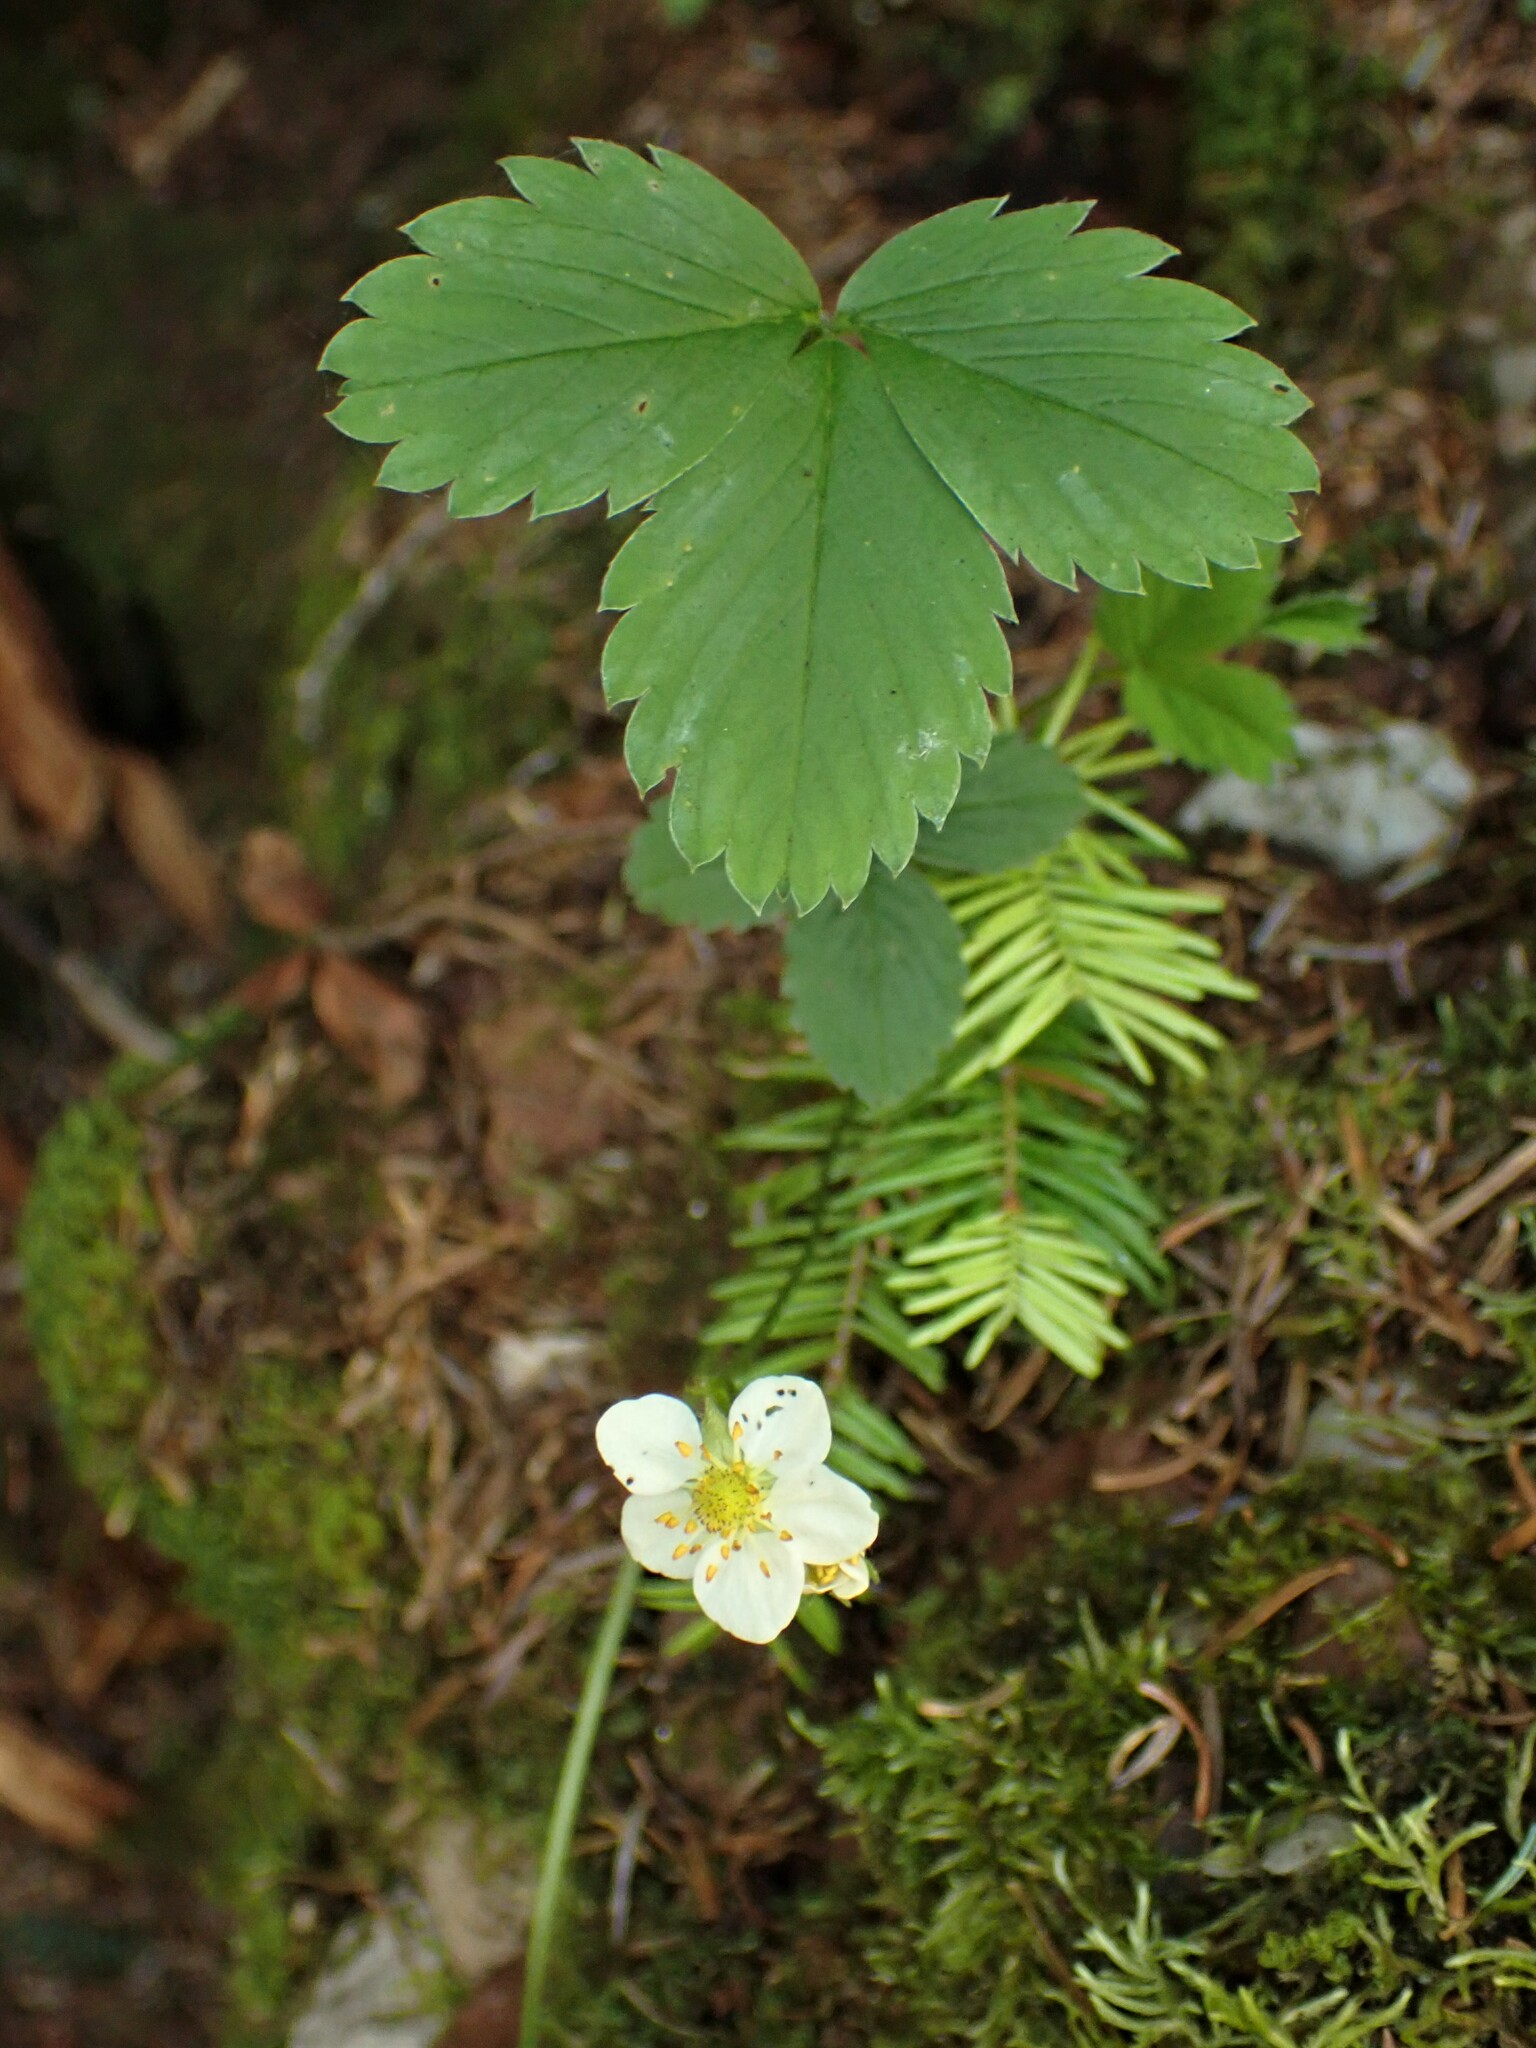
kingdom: Plantae
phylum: Tracheophyta
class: Magnoliopsida
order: Rosales
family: Rosaceae
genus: Fragaria
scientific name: Fragaria virginiana
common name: Thickleaved wild strawberry
